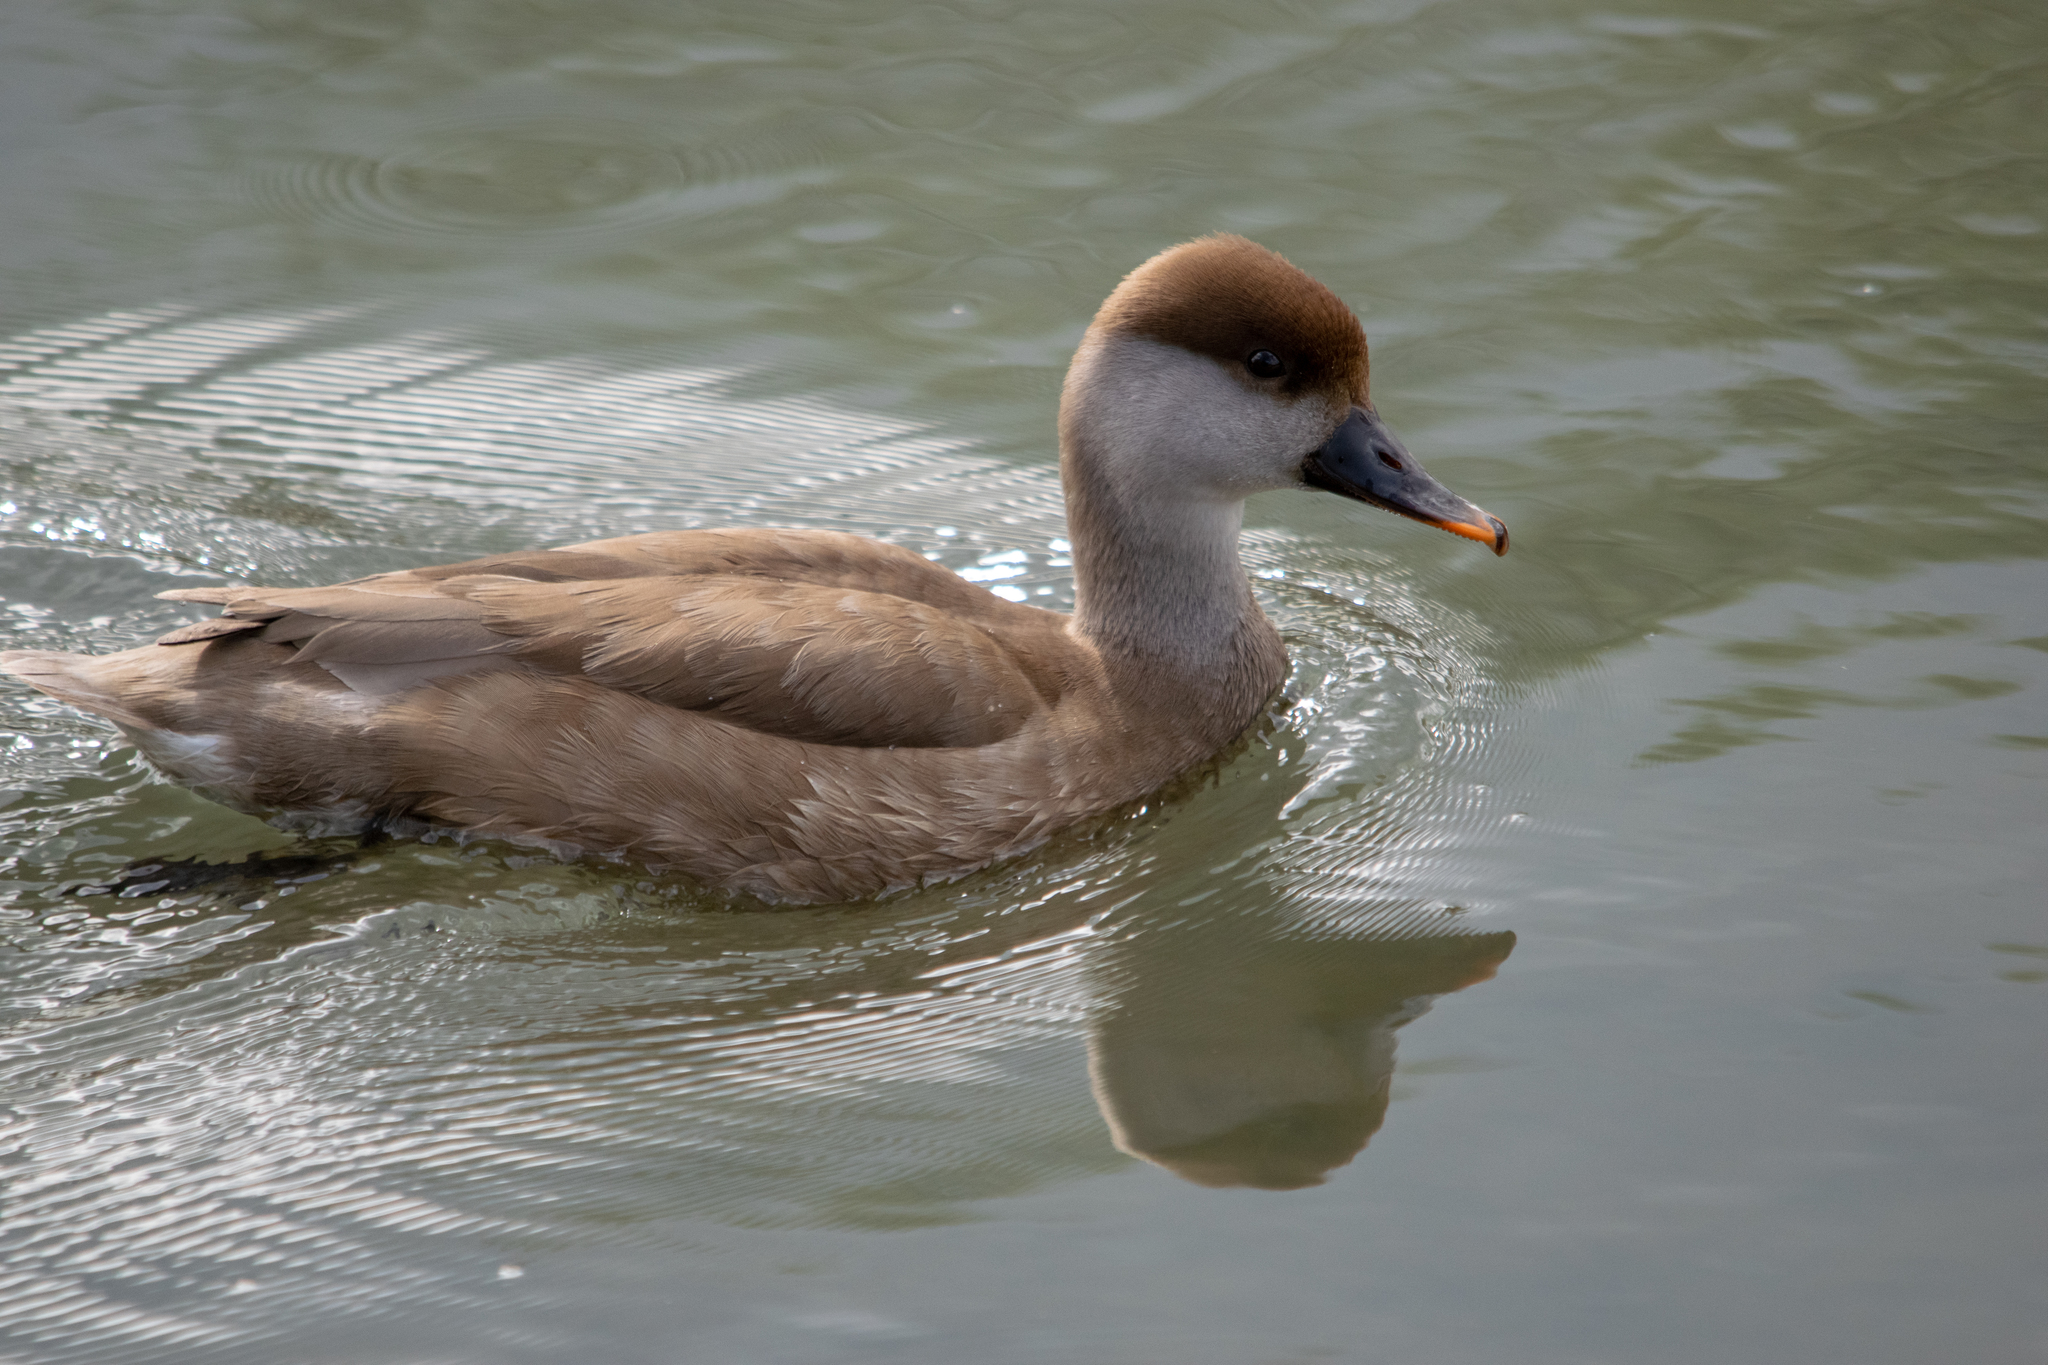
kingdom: Animalia
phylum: Chordata
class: Aves
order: Anseriformes
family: Anatidae
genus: Netta
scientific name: Netta rufina
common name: Red-crested pochard
